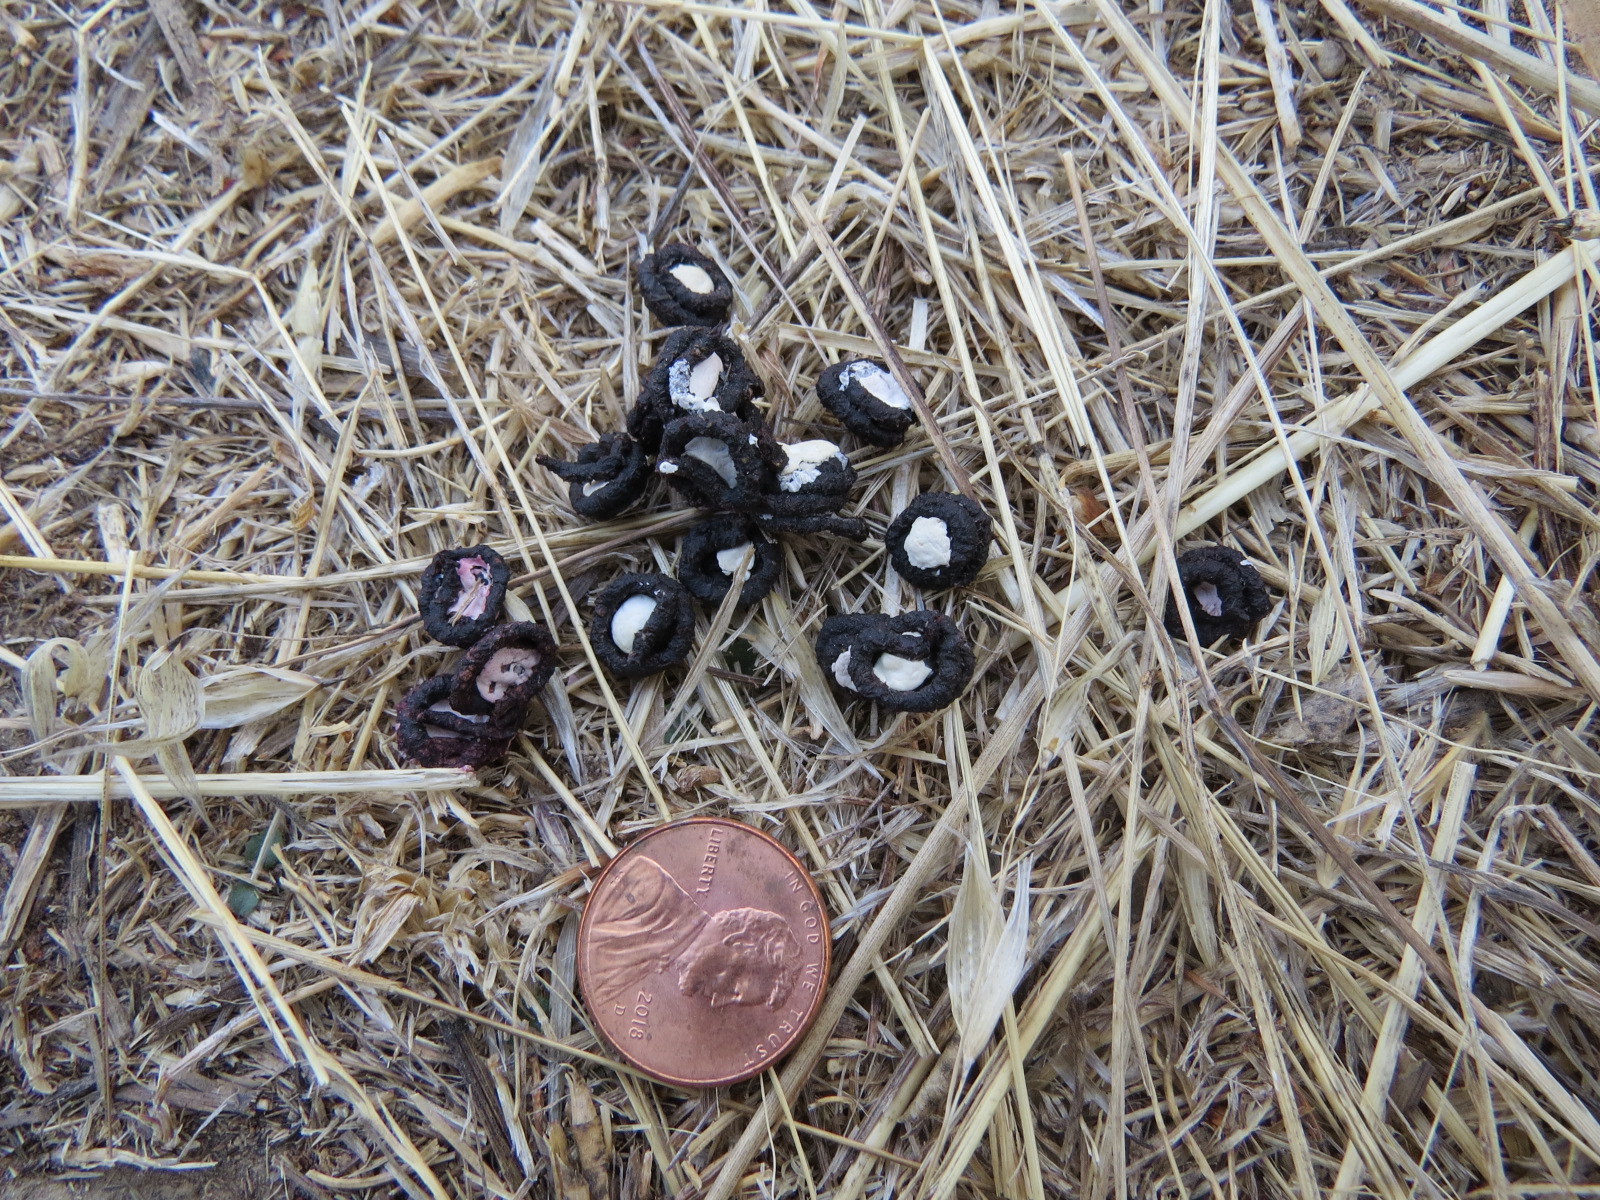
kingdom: Animalia
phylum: Chordata
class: Aves
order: Columbiformes
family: Columbidae
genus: Zenaida
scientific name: Zenaida macroura
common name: Mourning dove
